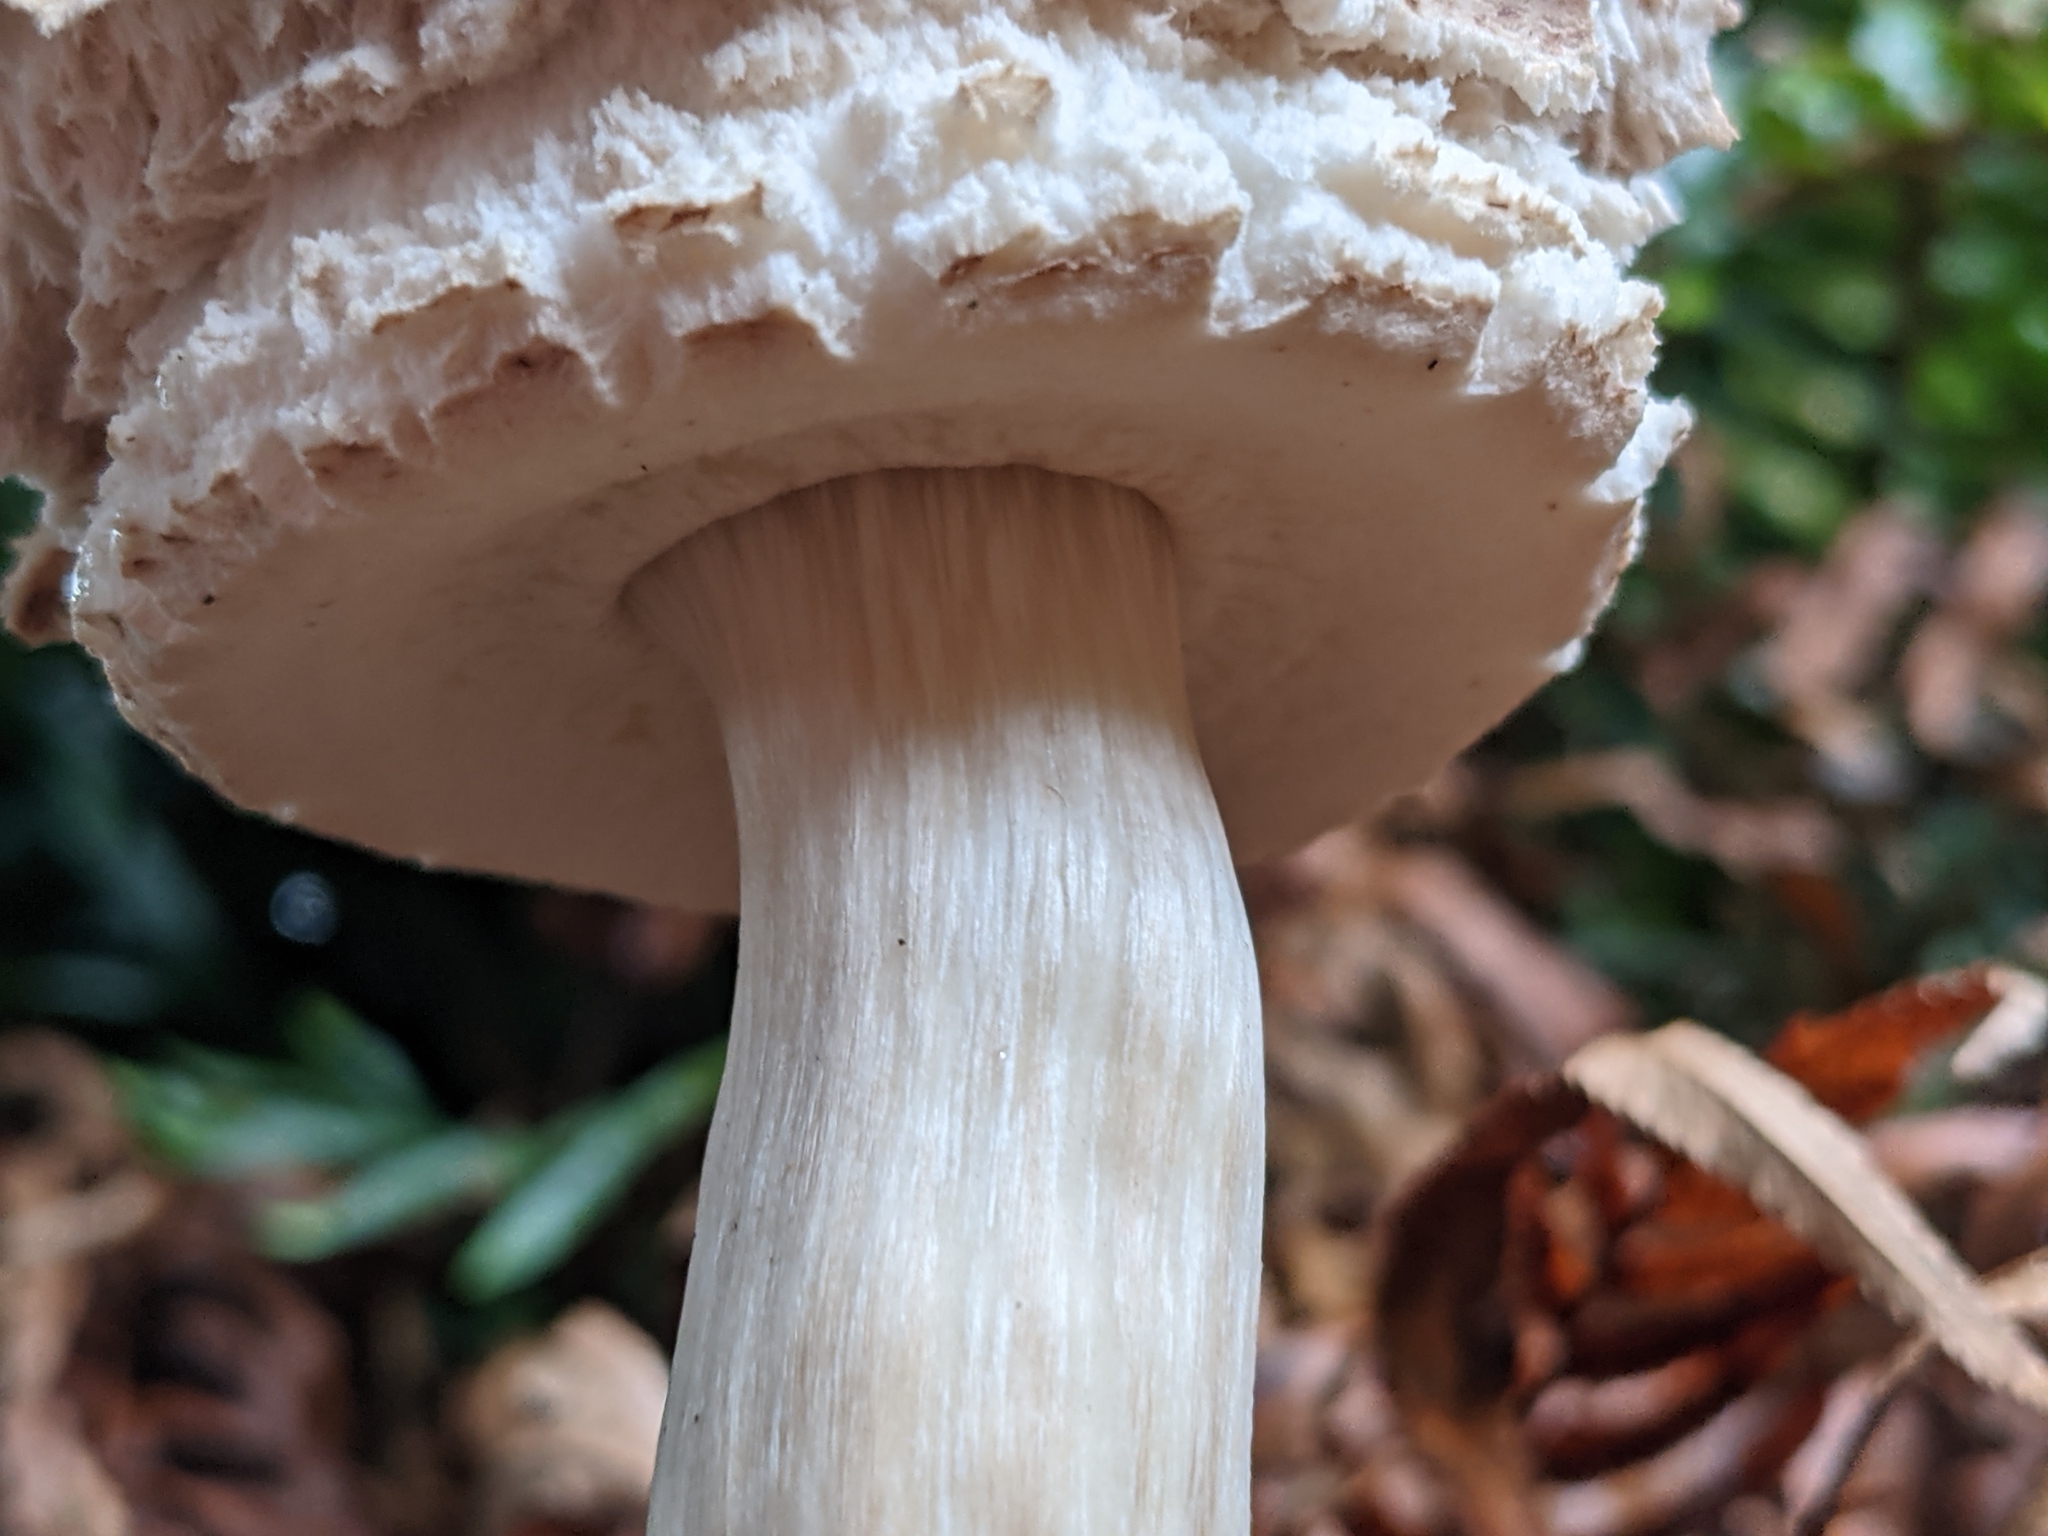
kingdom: Fungi
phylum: Basidiomycota
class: Agaricomycetes
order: Agaricales
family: Agaricaceae
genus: Chlorophyllum
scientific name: Chlorophyllum olivieri
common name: Conifer parasol
